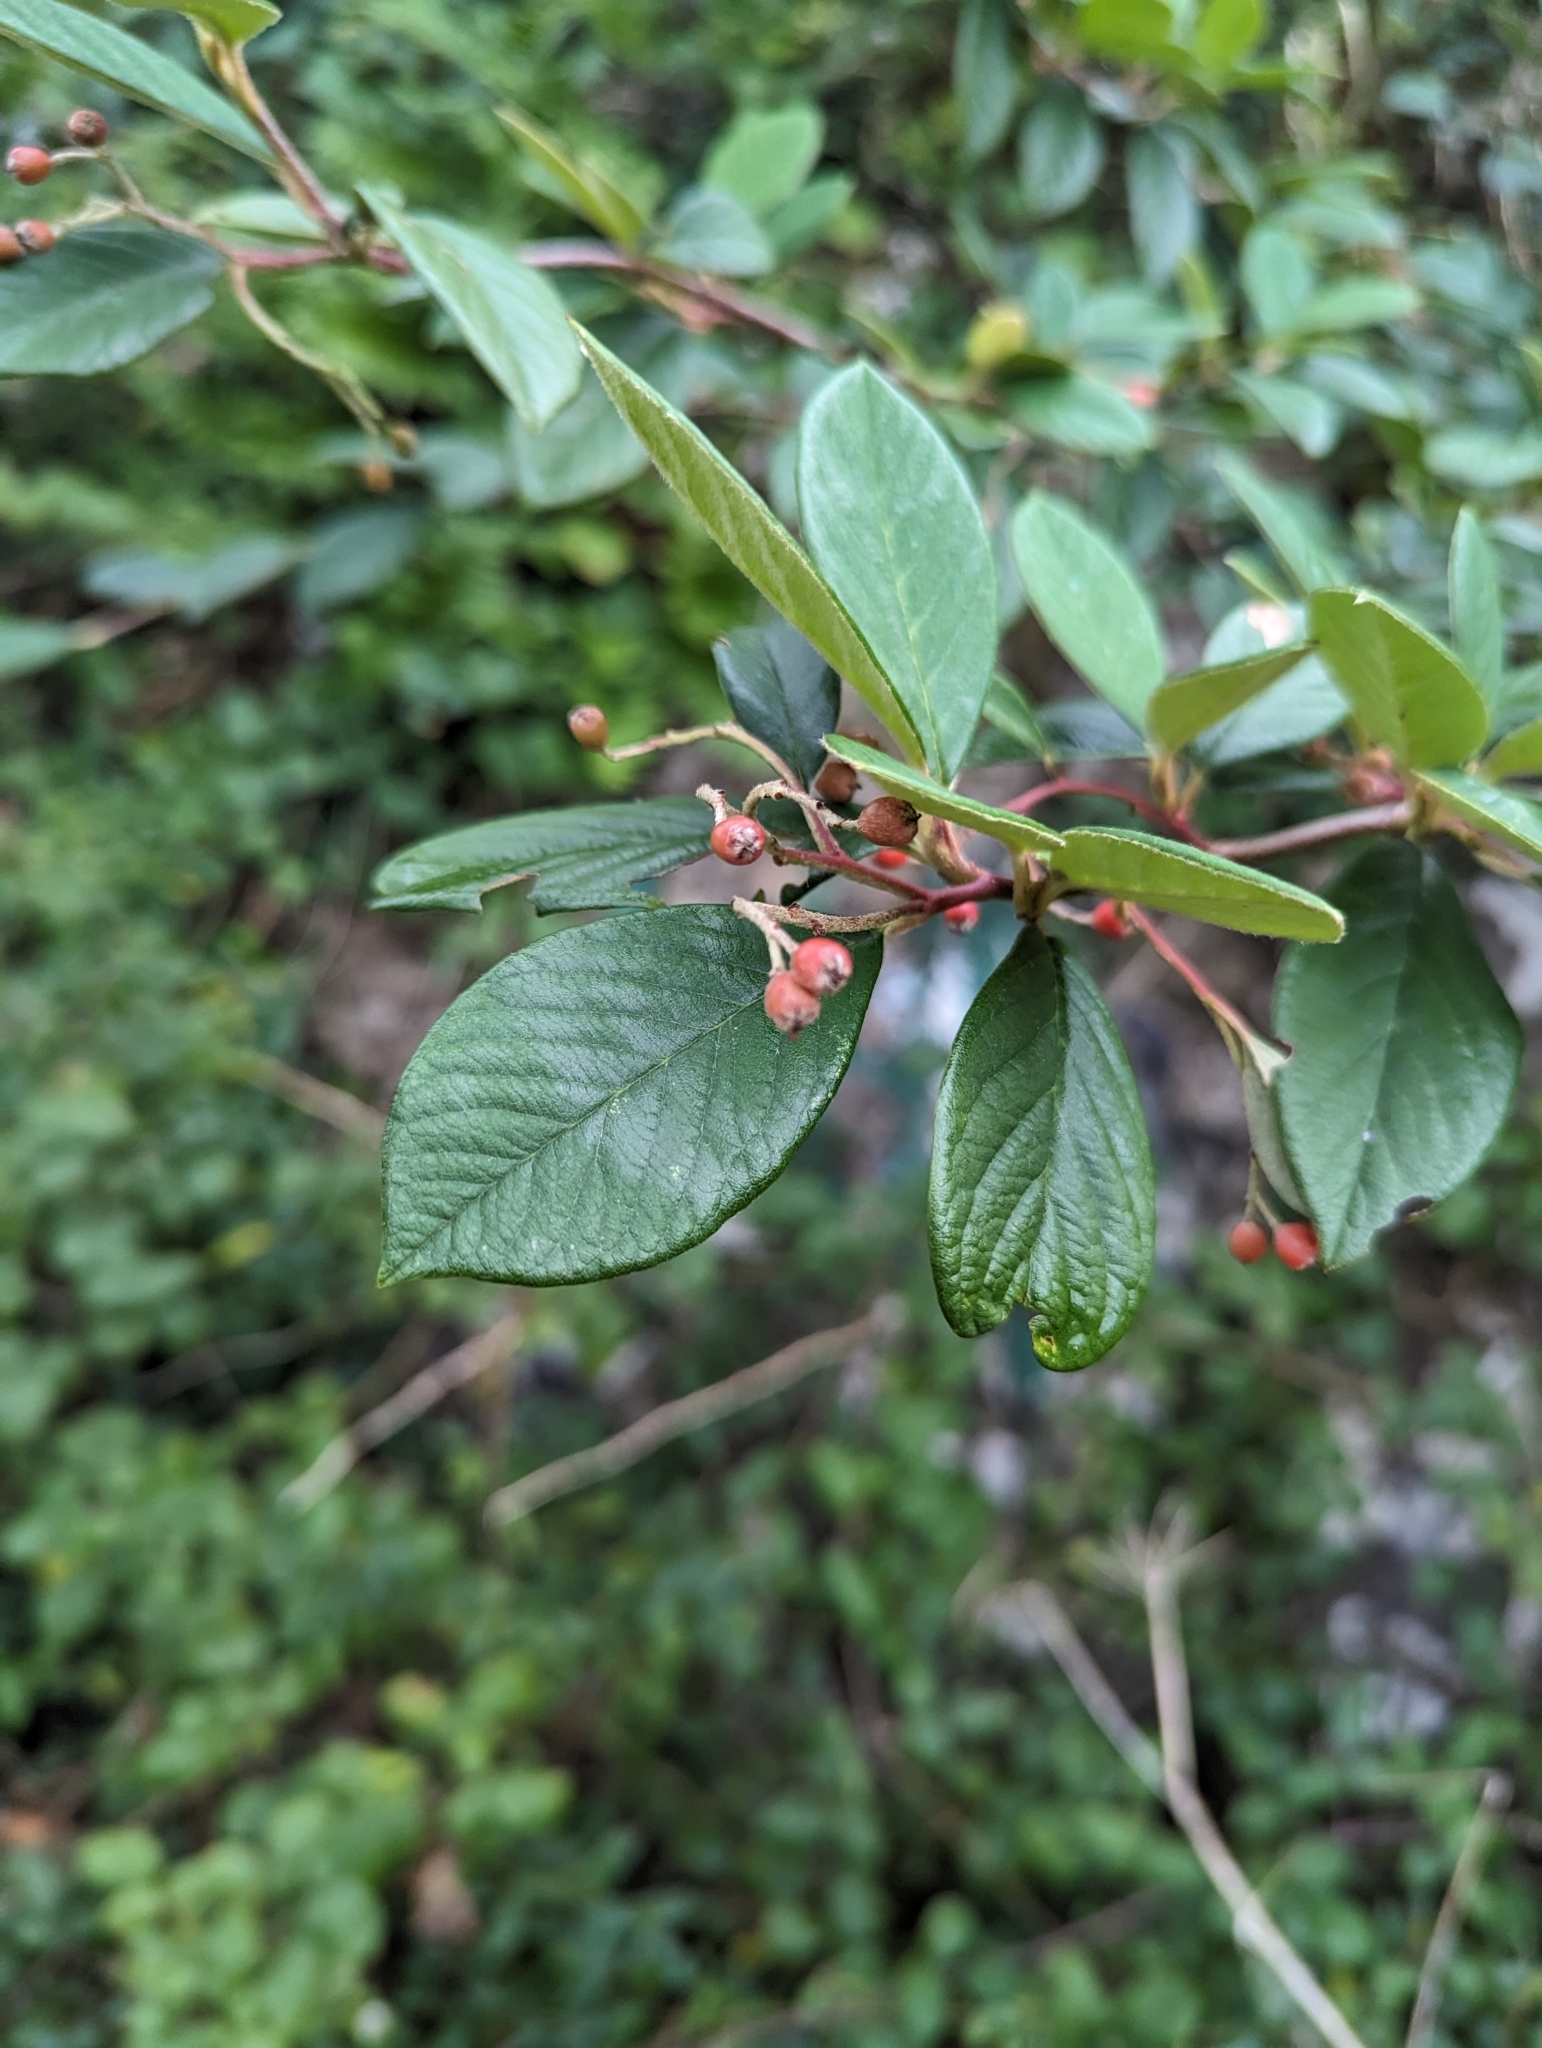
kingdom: Plantae
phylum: Tracheophyta
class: Magnoliopsida
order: Rosales
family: Rosaceae
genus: Cotoneaster
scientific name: Cotoneaster coriaceus
